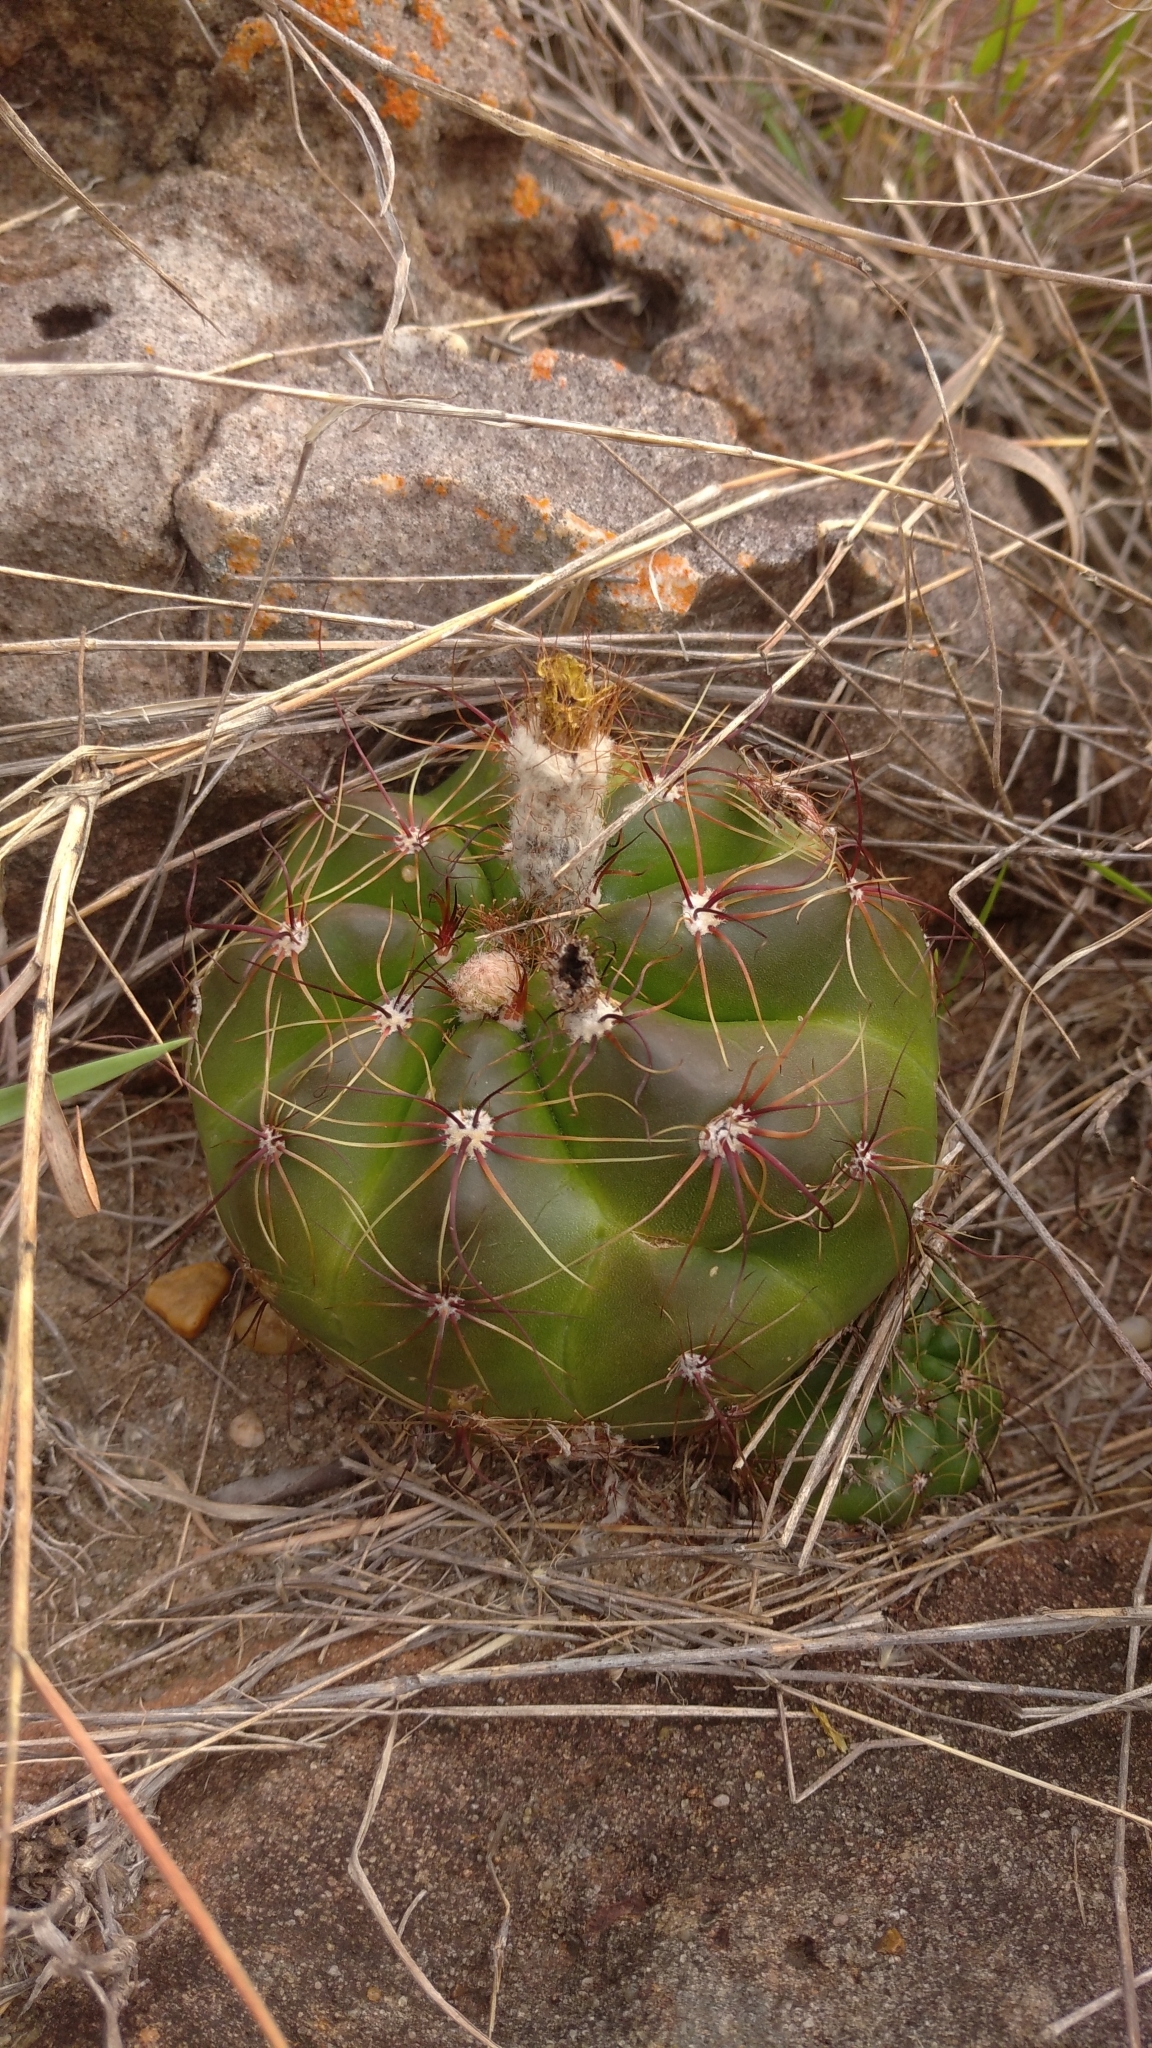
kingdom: Plantae
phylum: Tracheophyta
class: Magnoliopsida
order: Caryophyllales
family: Cactaceae
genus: Parodia
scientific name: Parodia ottonis
